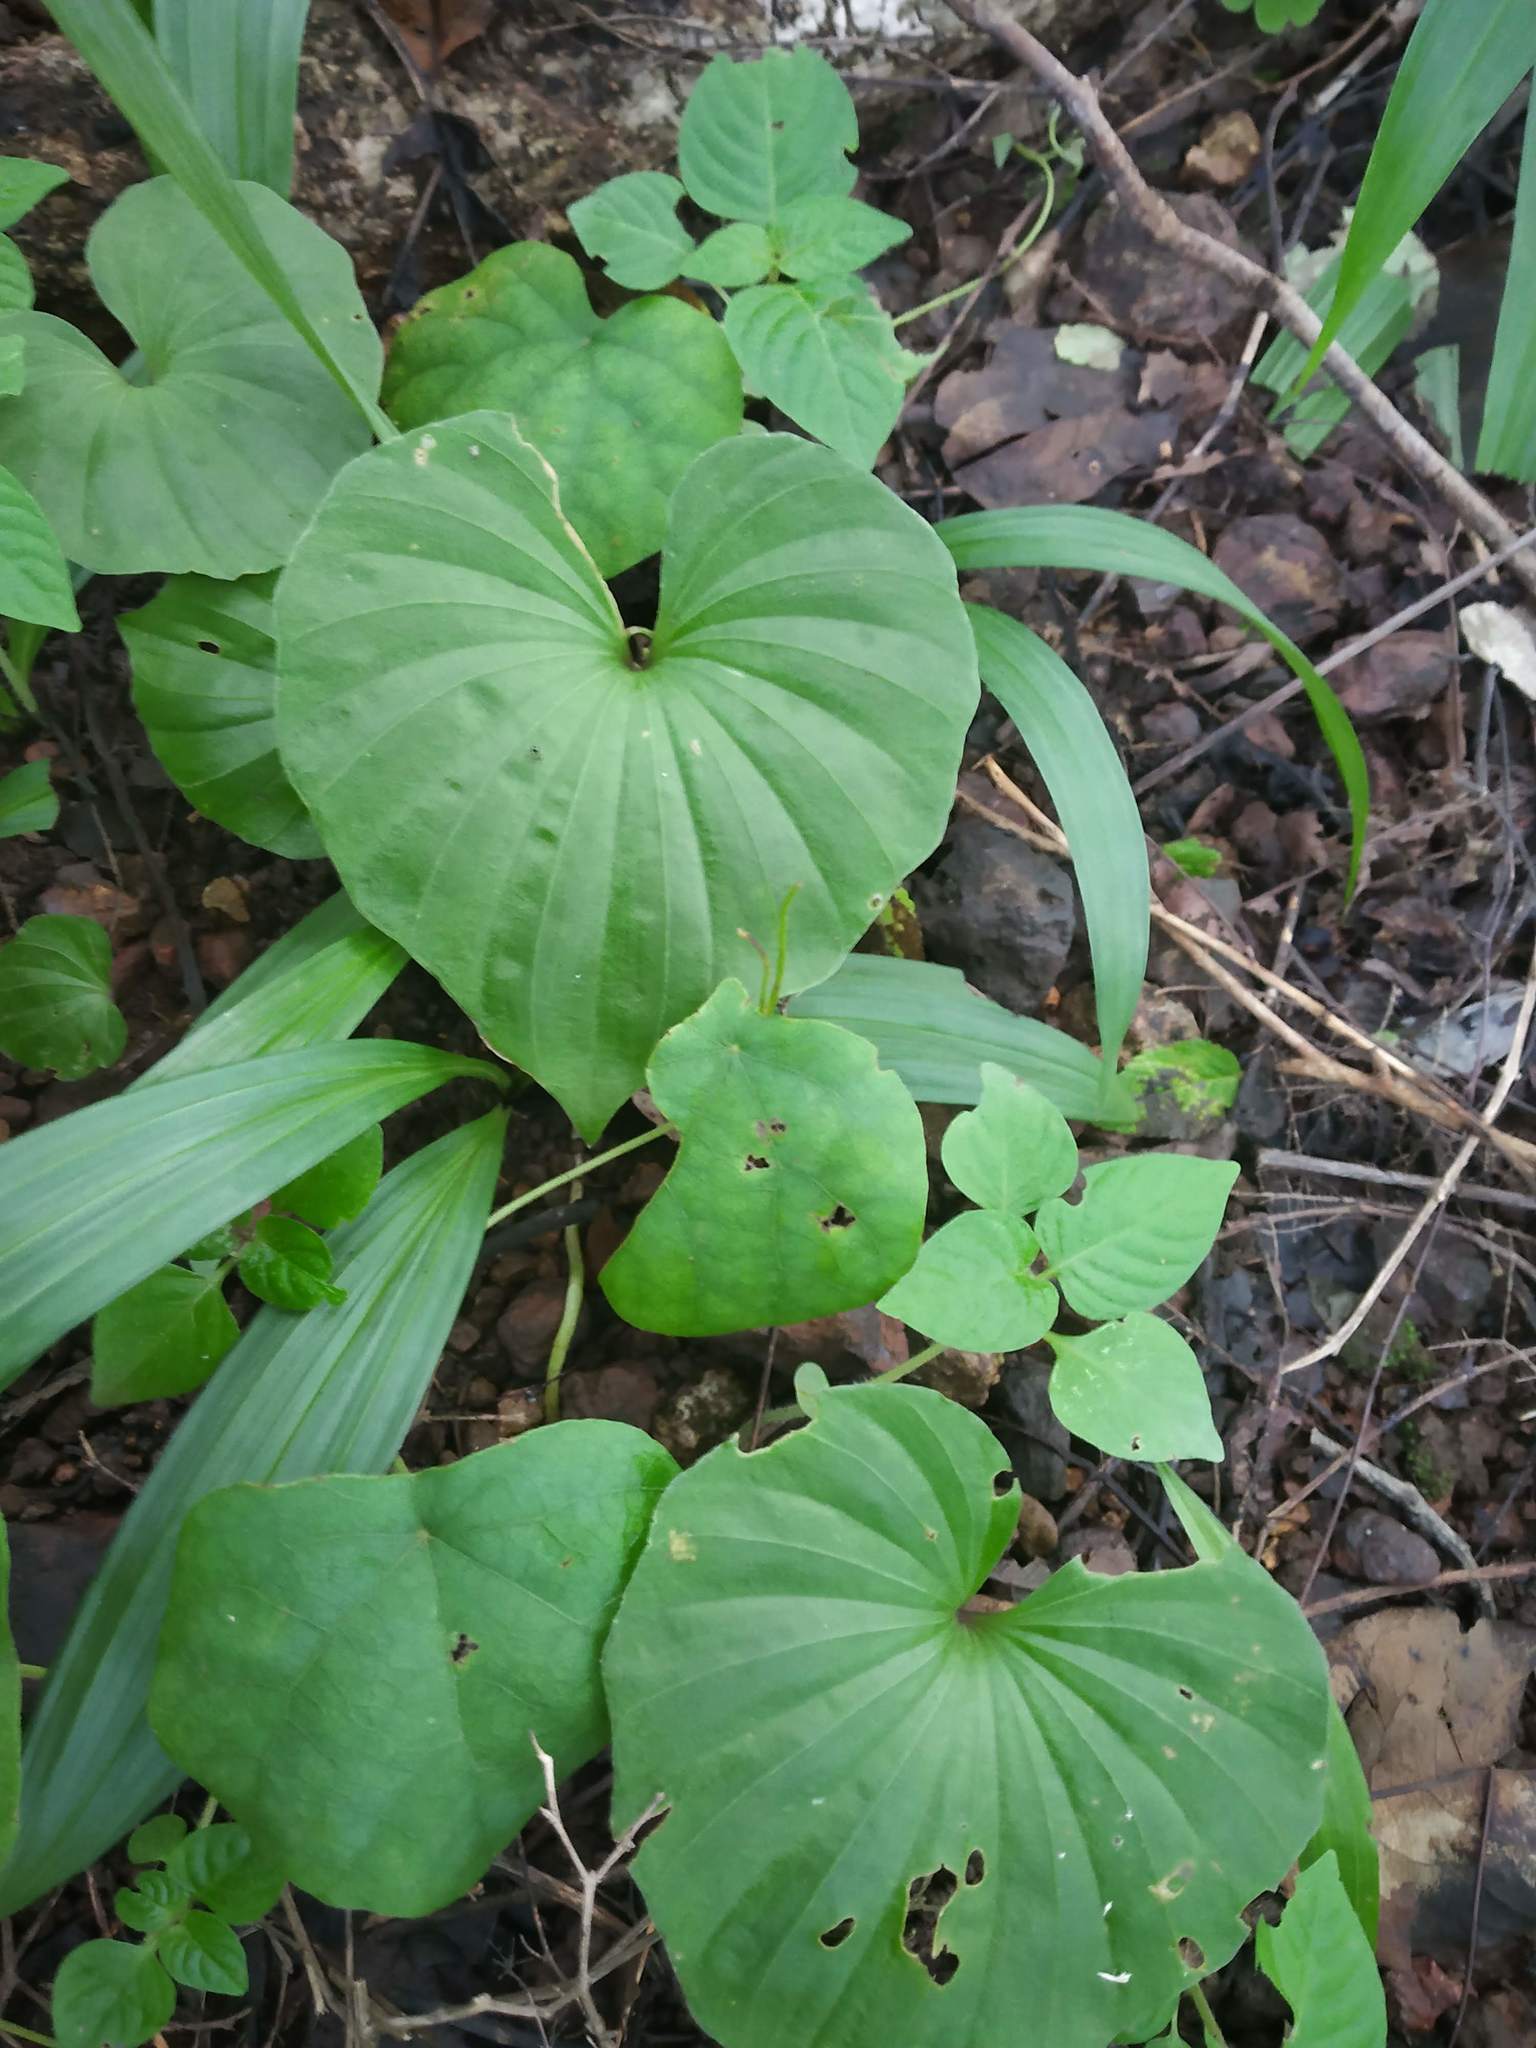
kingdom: Plantae
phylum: Tracheophyta
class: Liliopsida
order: Asparagales
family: Orchidaceae
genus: Nervilia
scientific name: Nervilia concolor
